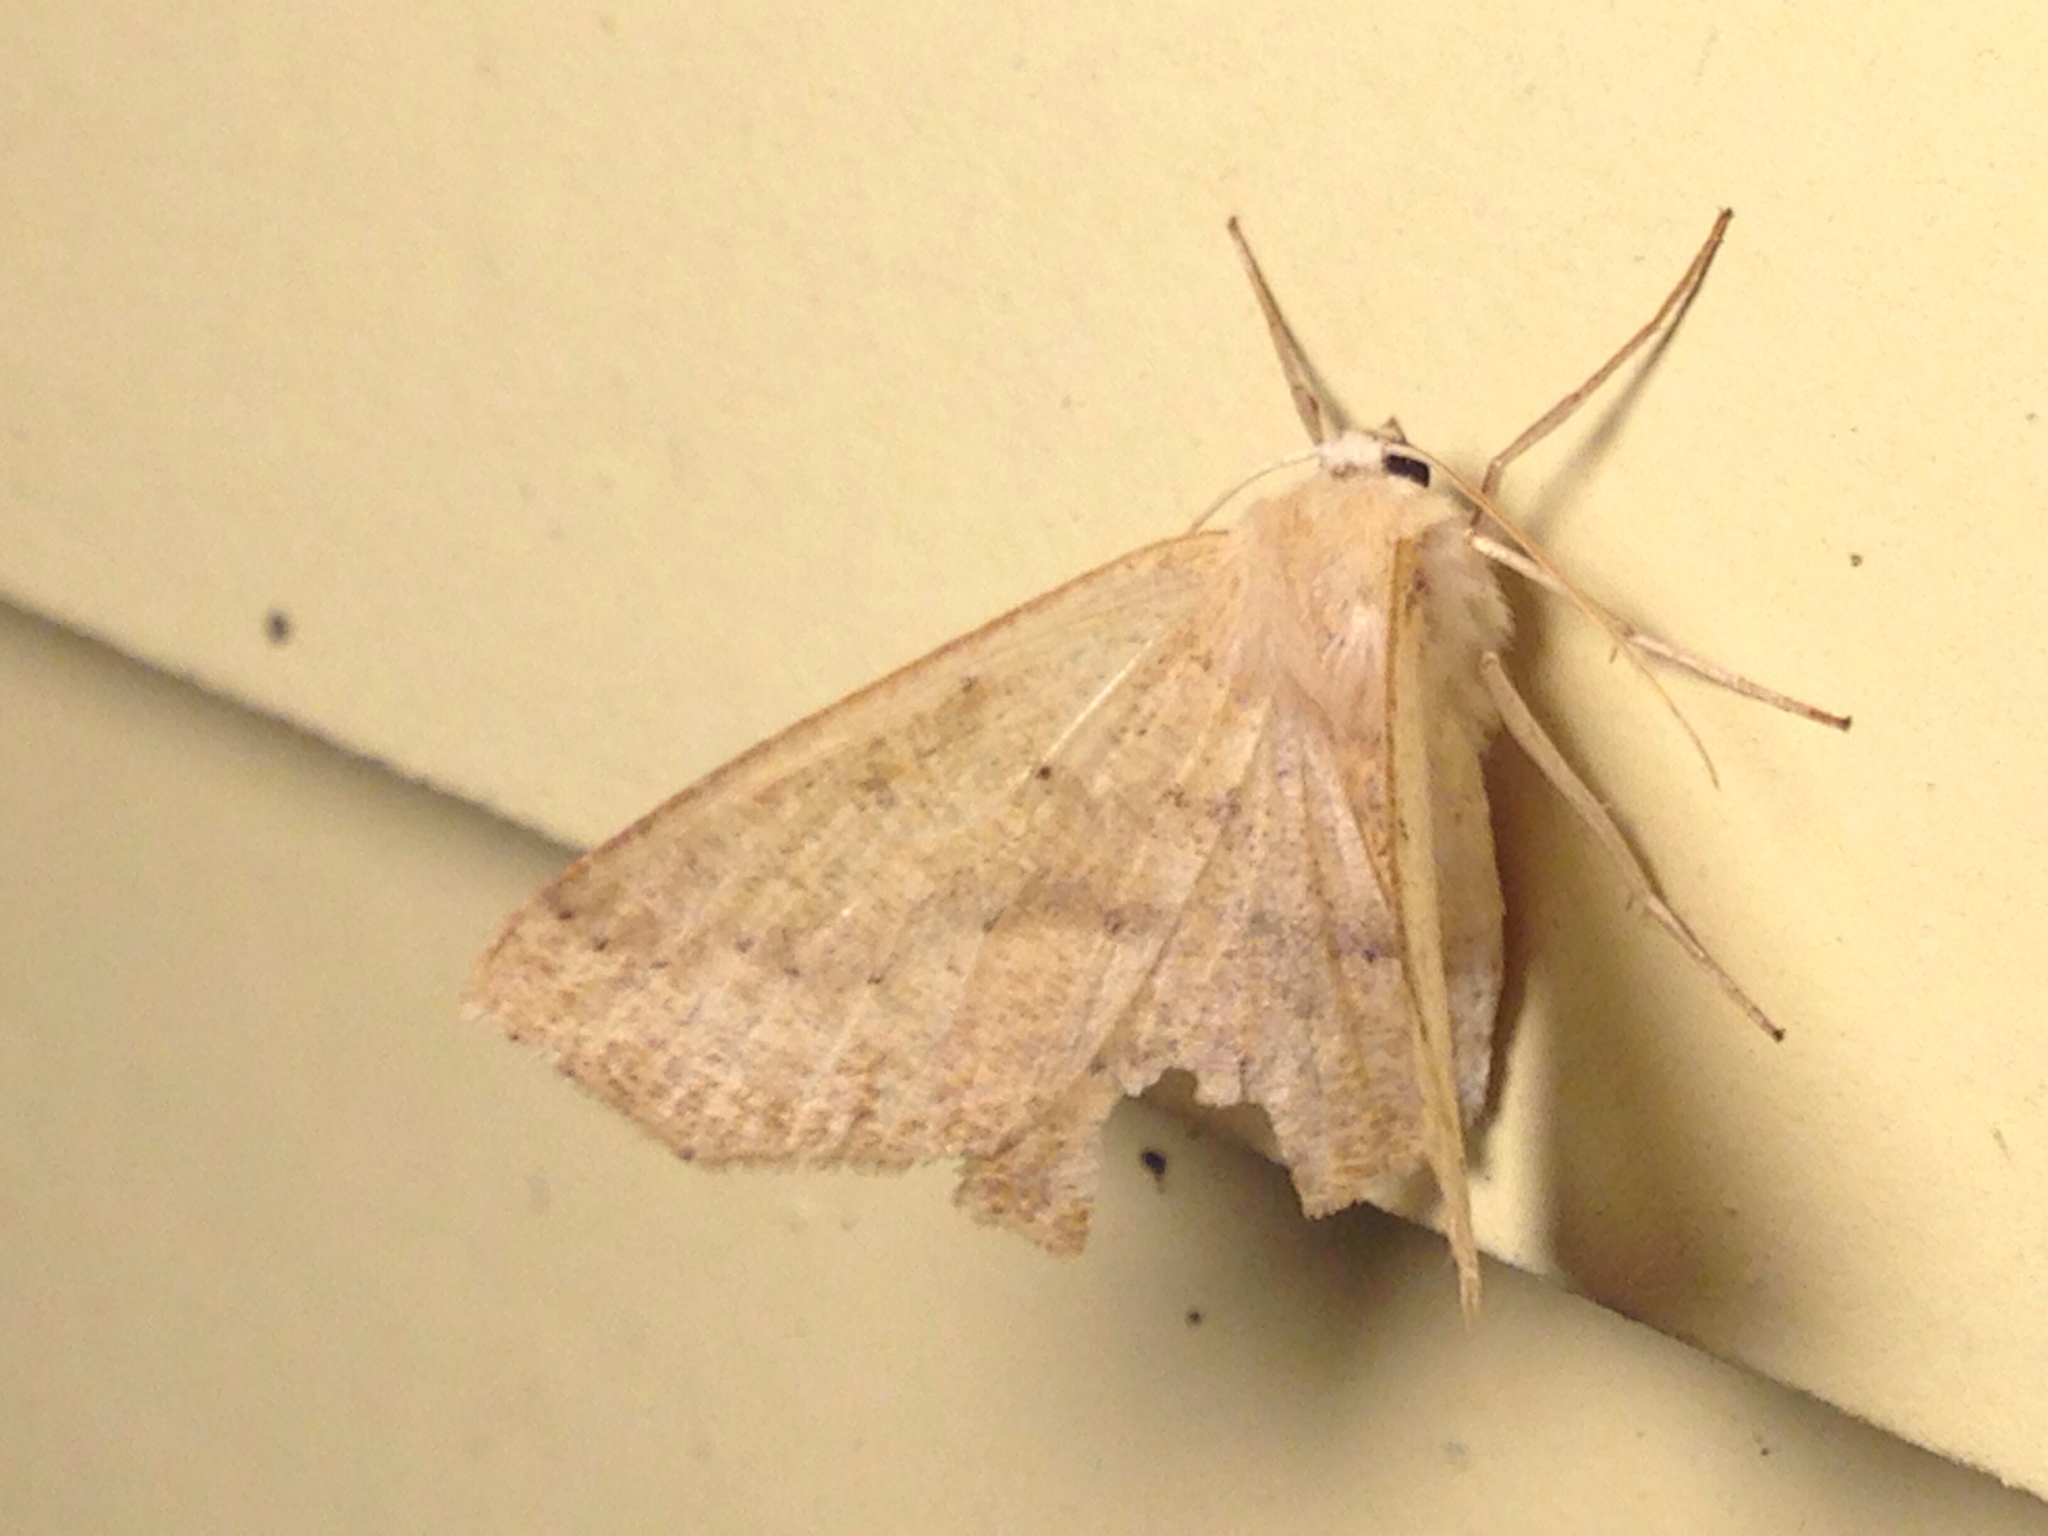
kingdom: Animalia
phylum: Arthropoda
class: Insecta
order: Lepidoptera
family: Geometridae
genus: Sabulodes
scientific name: Sabulodes aegrotata
